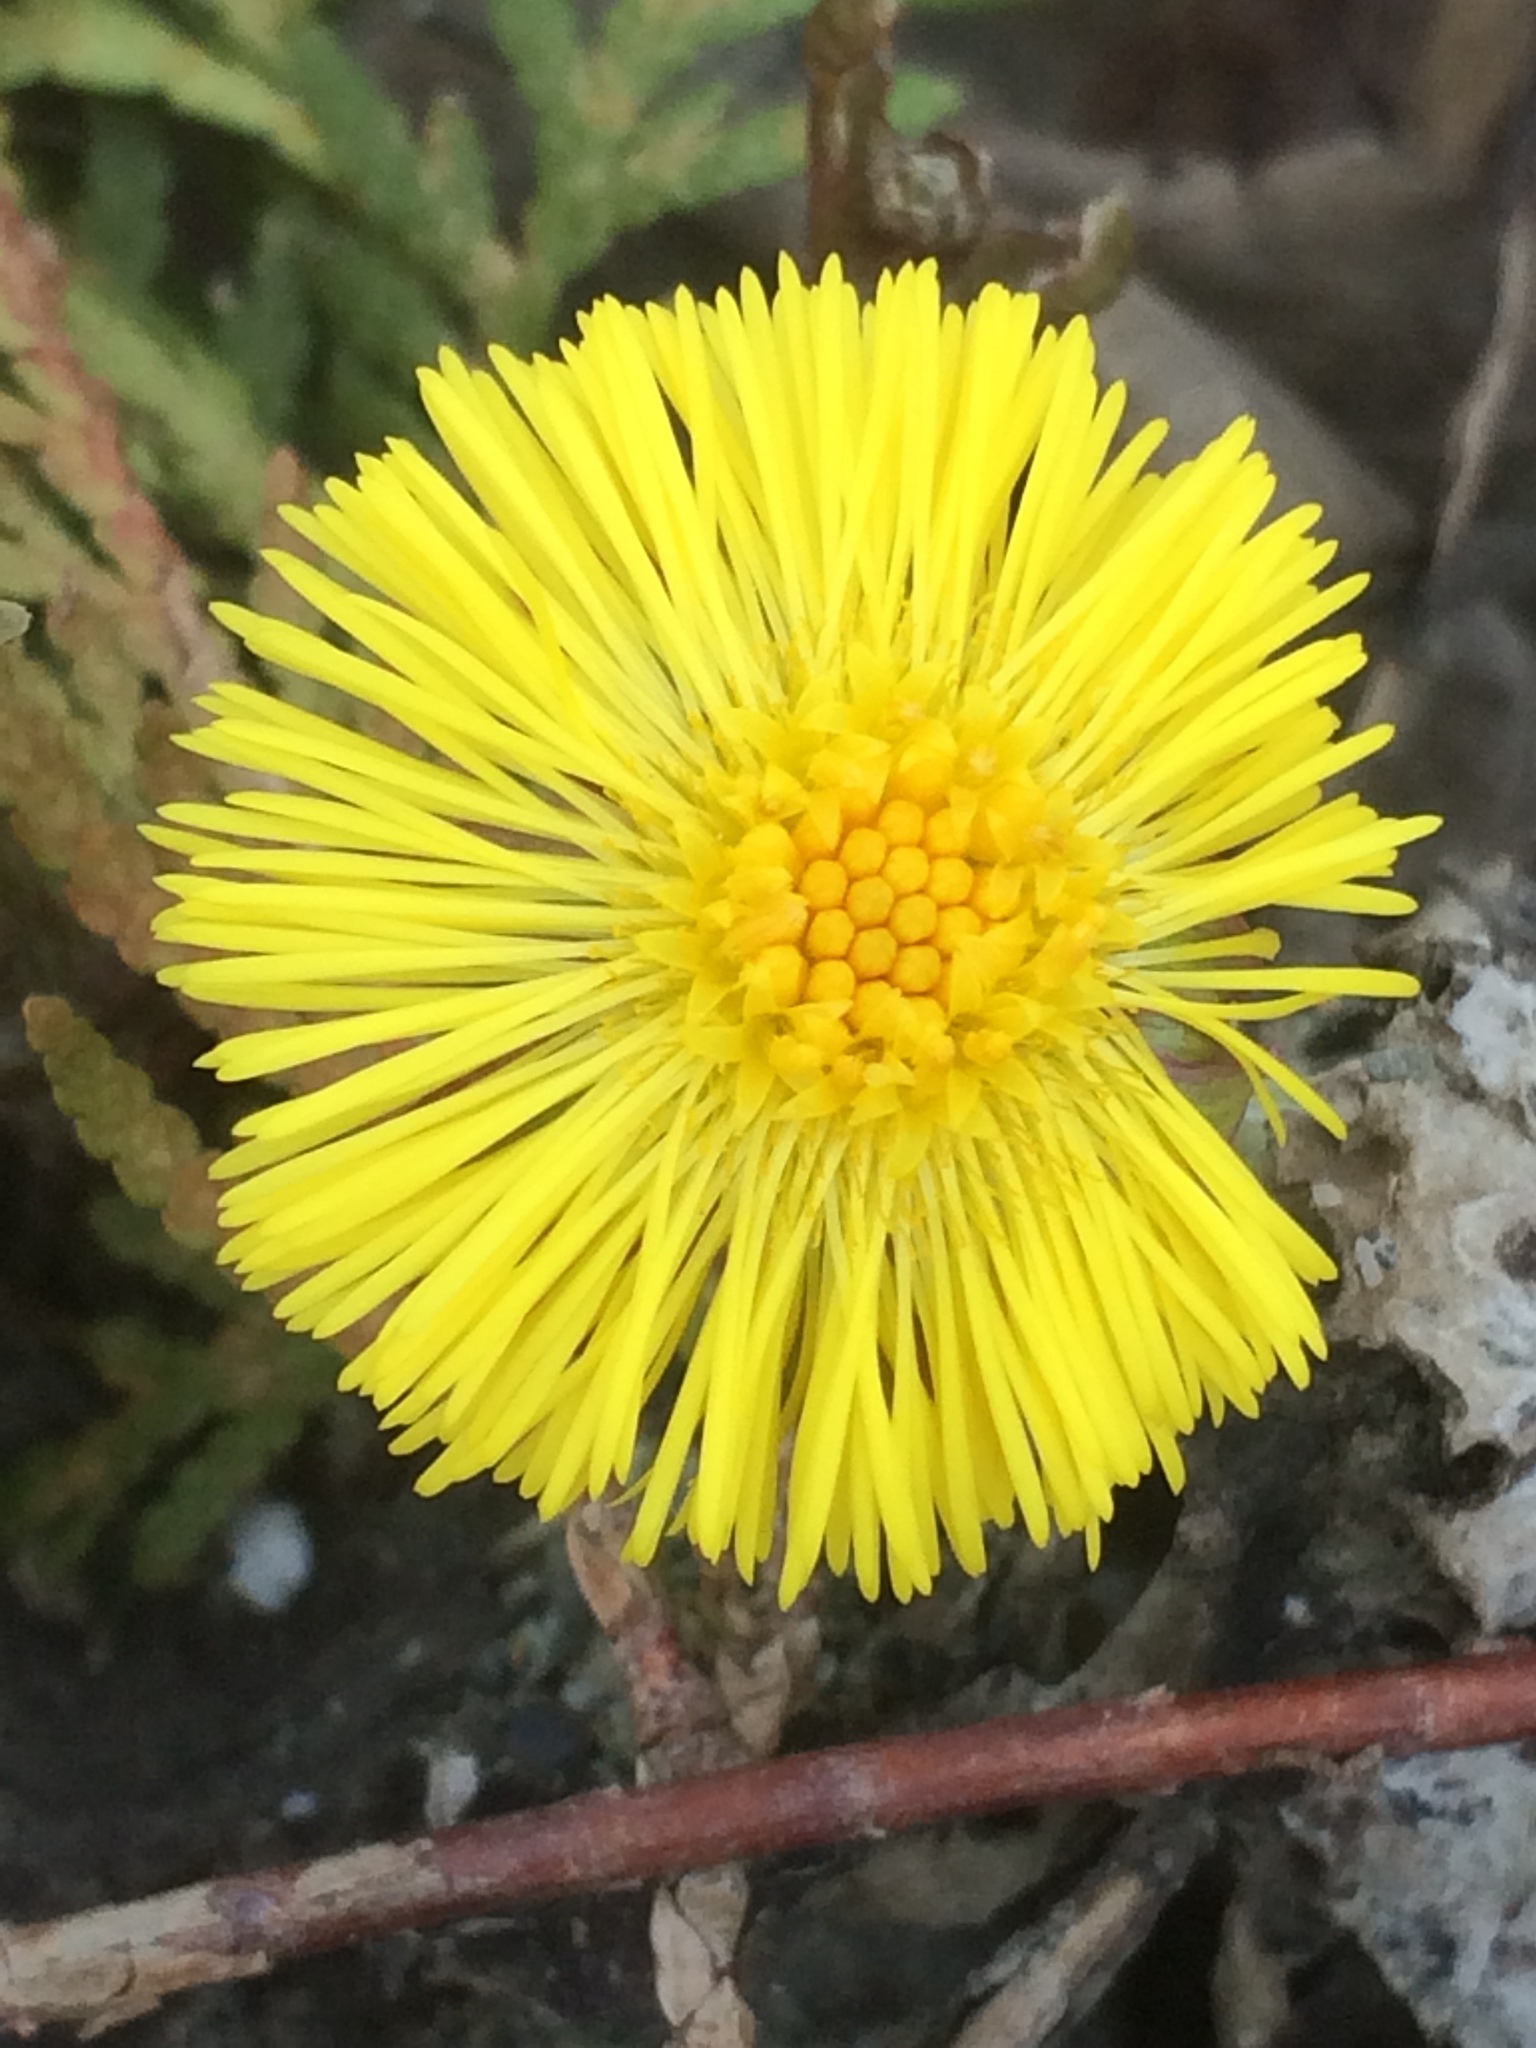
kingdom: Plantae
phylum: Tracheophyta
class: Magnoliopsida
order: Asterales
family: Asteraceae
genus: Tussilago
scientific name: Tussilago farfara
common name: Coltsfoot
